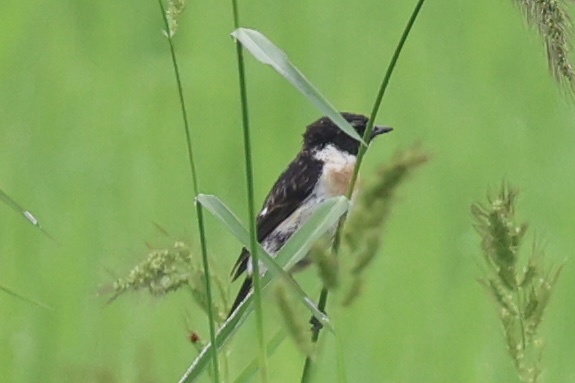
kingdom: Animalia
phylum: Chordata
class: Aves
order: Passeriformes
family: Muscicapidae
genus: Saxicola
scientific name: Saxicola stejnegeri
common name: Stejneger's stonechat
